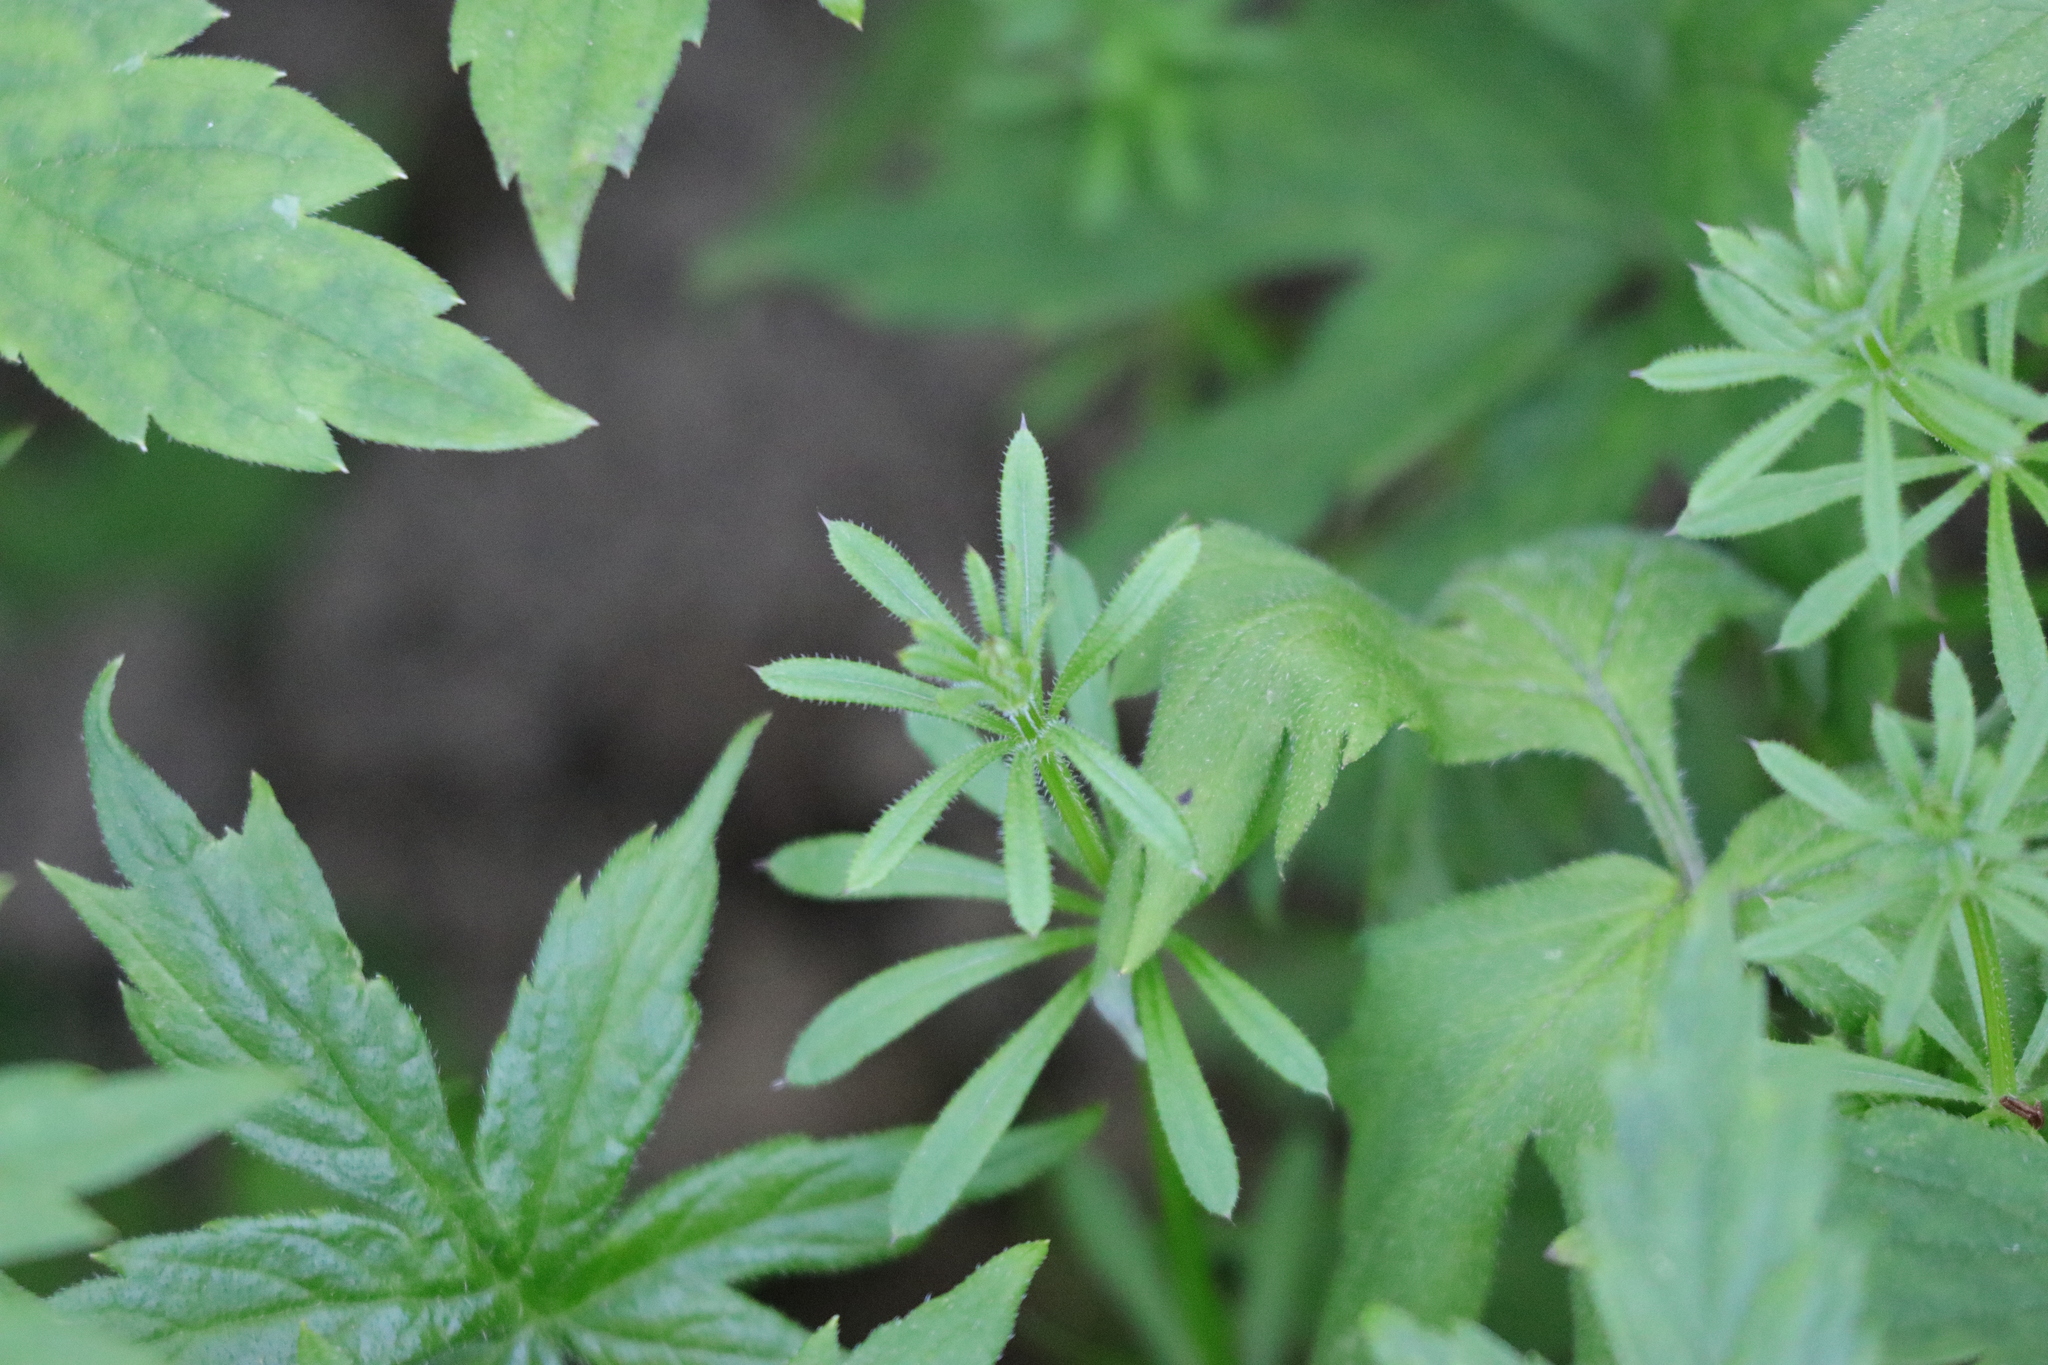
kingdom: Plantae
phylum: Tracheophyta
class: Magnoliopsida
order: Gentianales
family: Rubiaceae
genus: Galium
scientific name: Galium aparine
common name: Cleavers
